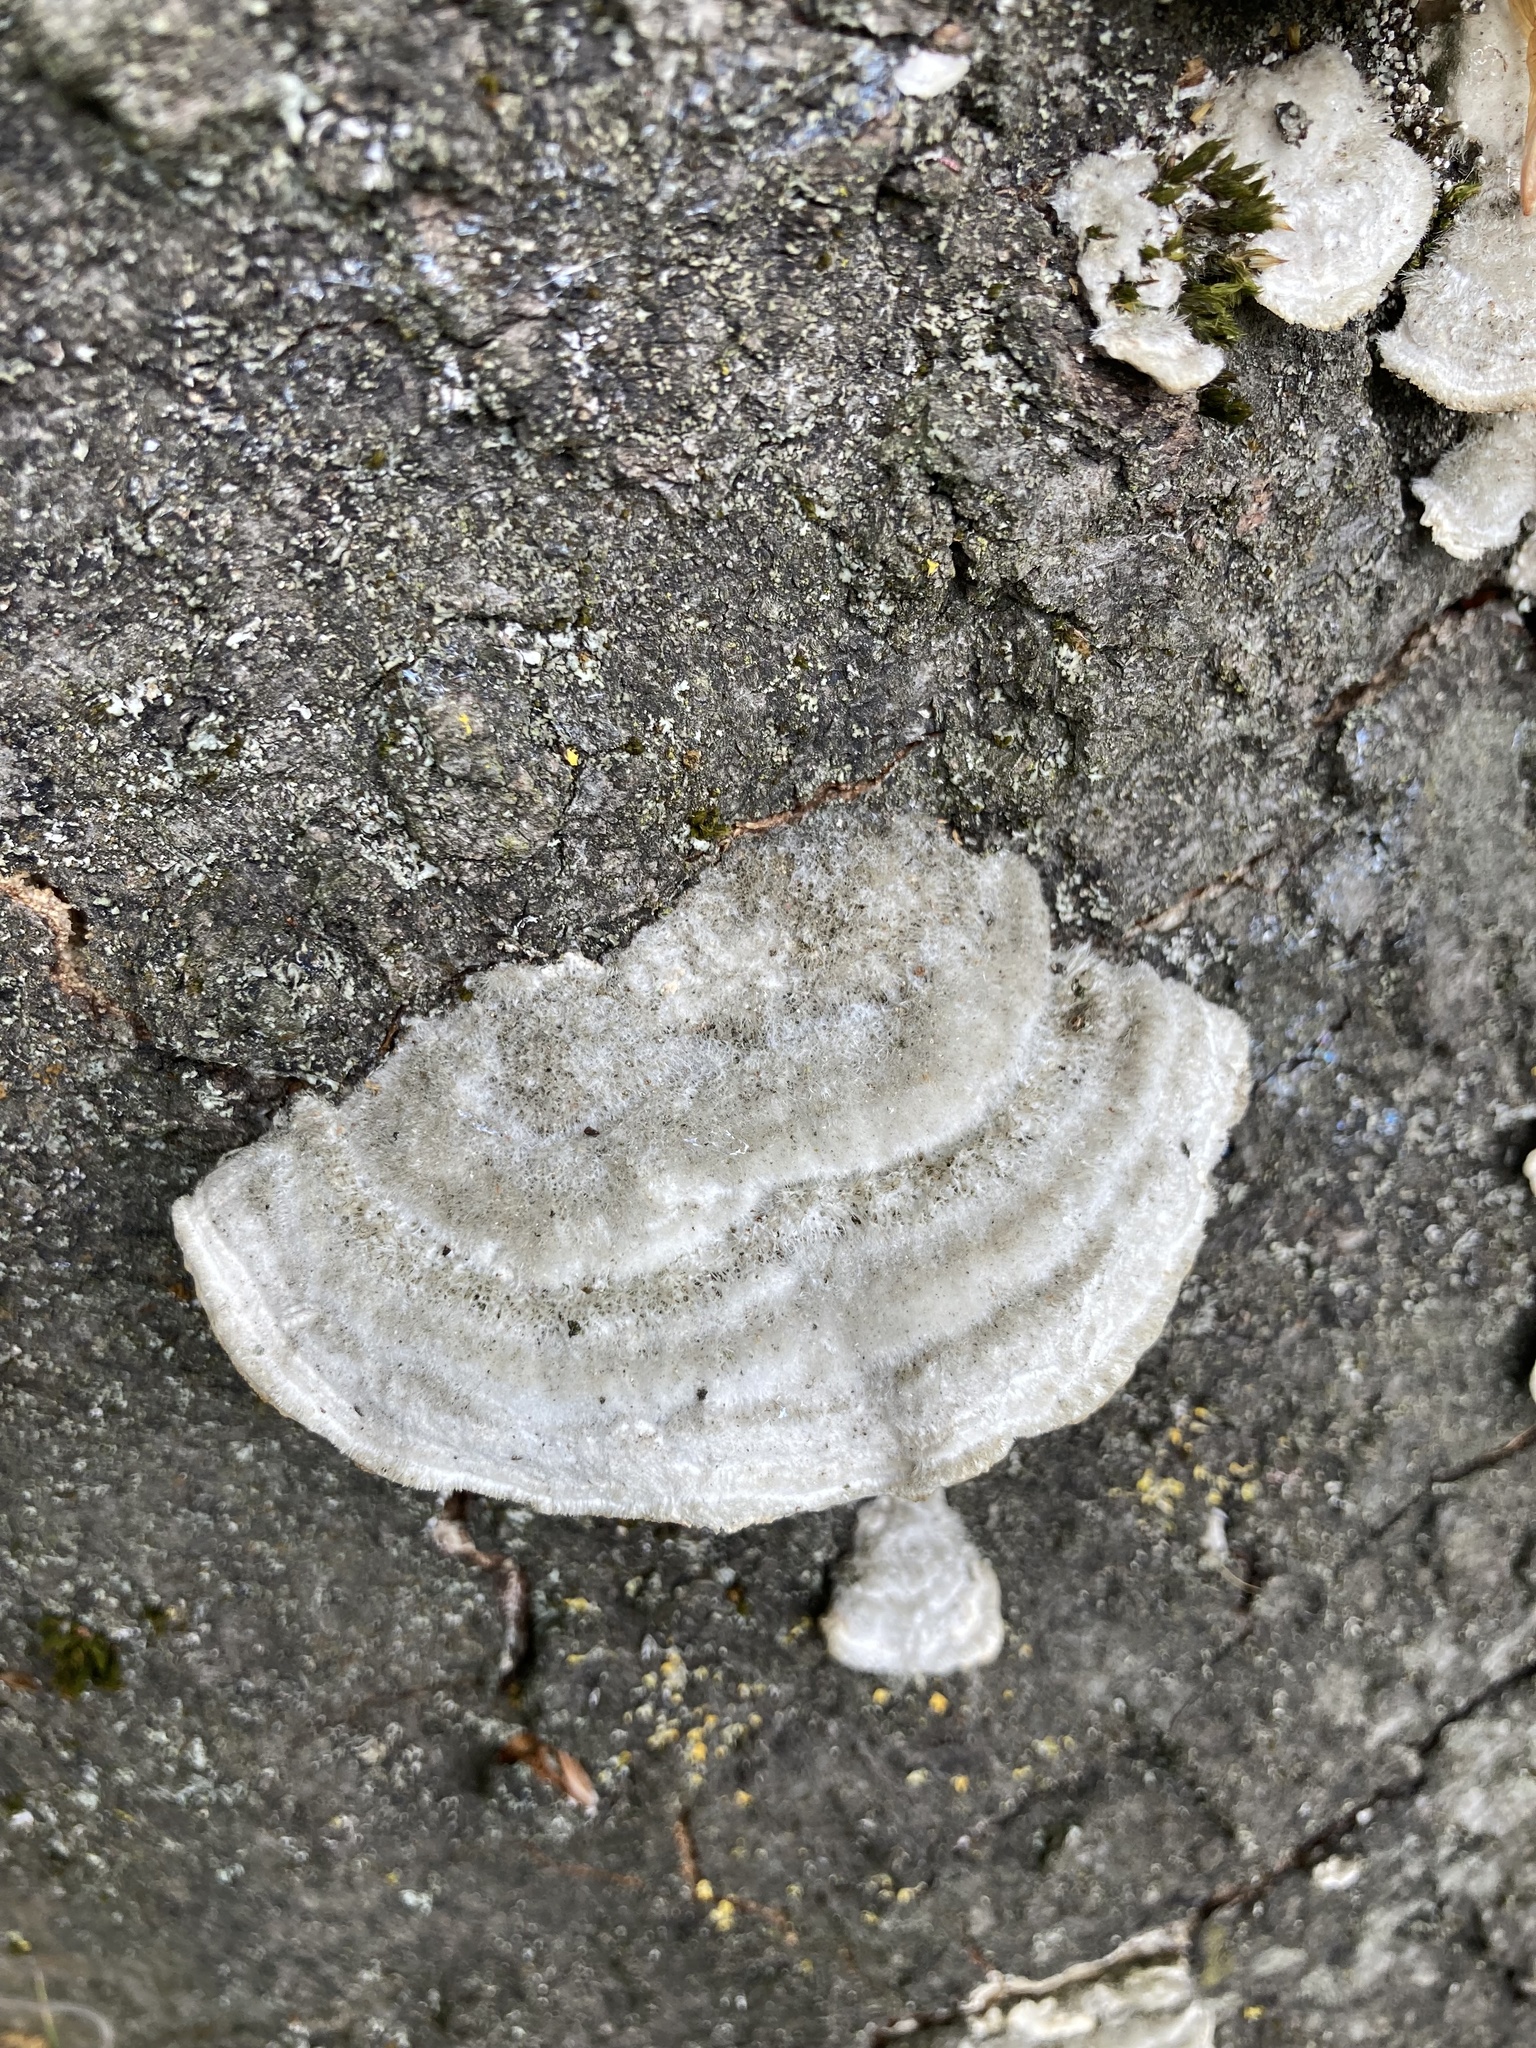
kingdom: Fungi
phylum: Basidiomycota
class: Agaricomycetes
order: Polyporales
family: Polyporaceae
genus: Trametes
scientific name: Trametes hirsuta
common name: Hairy bracket
